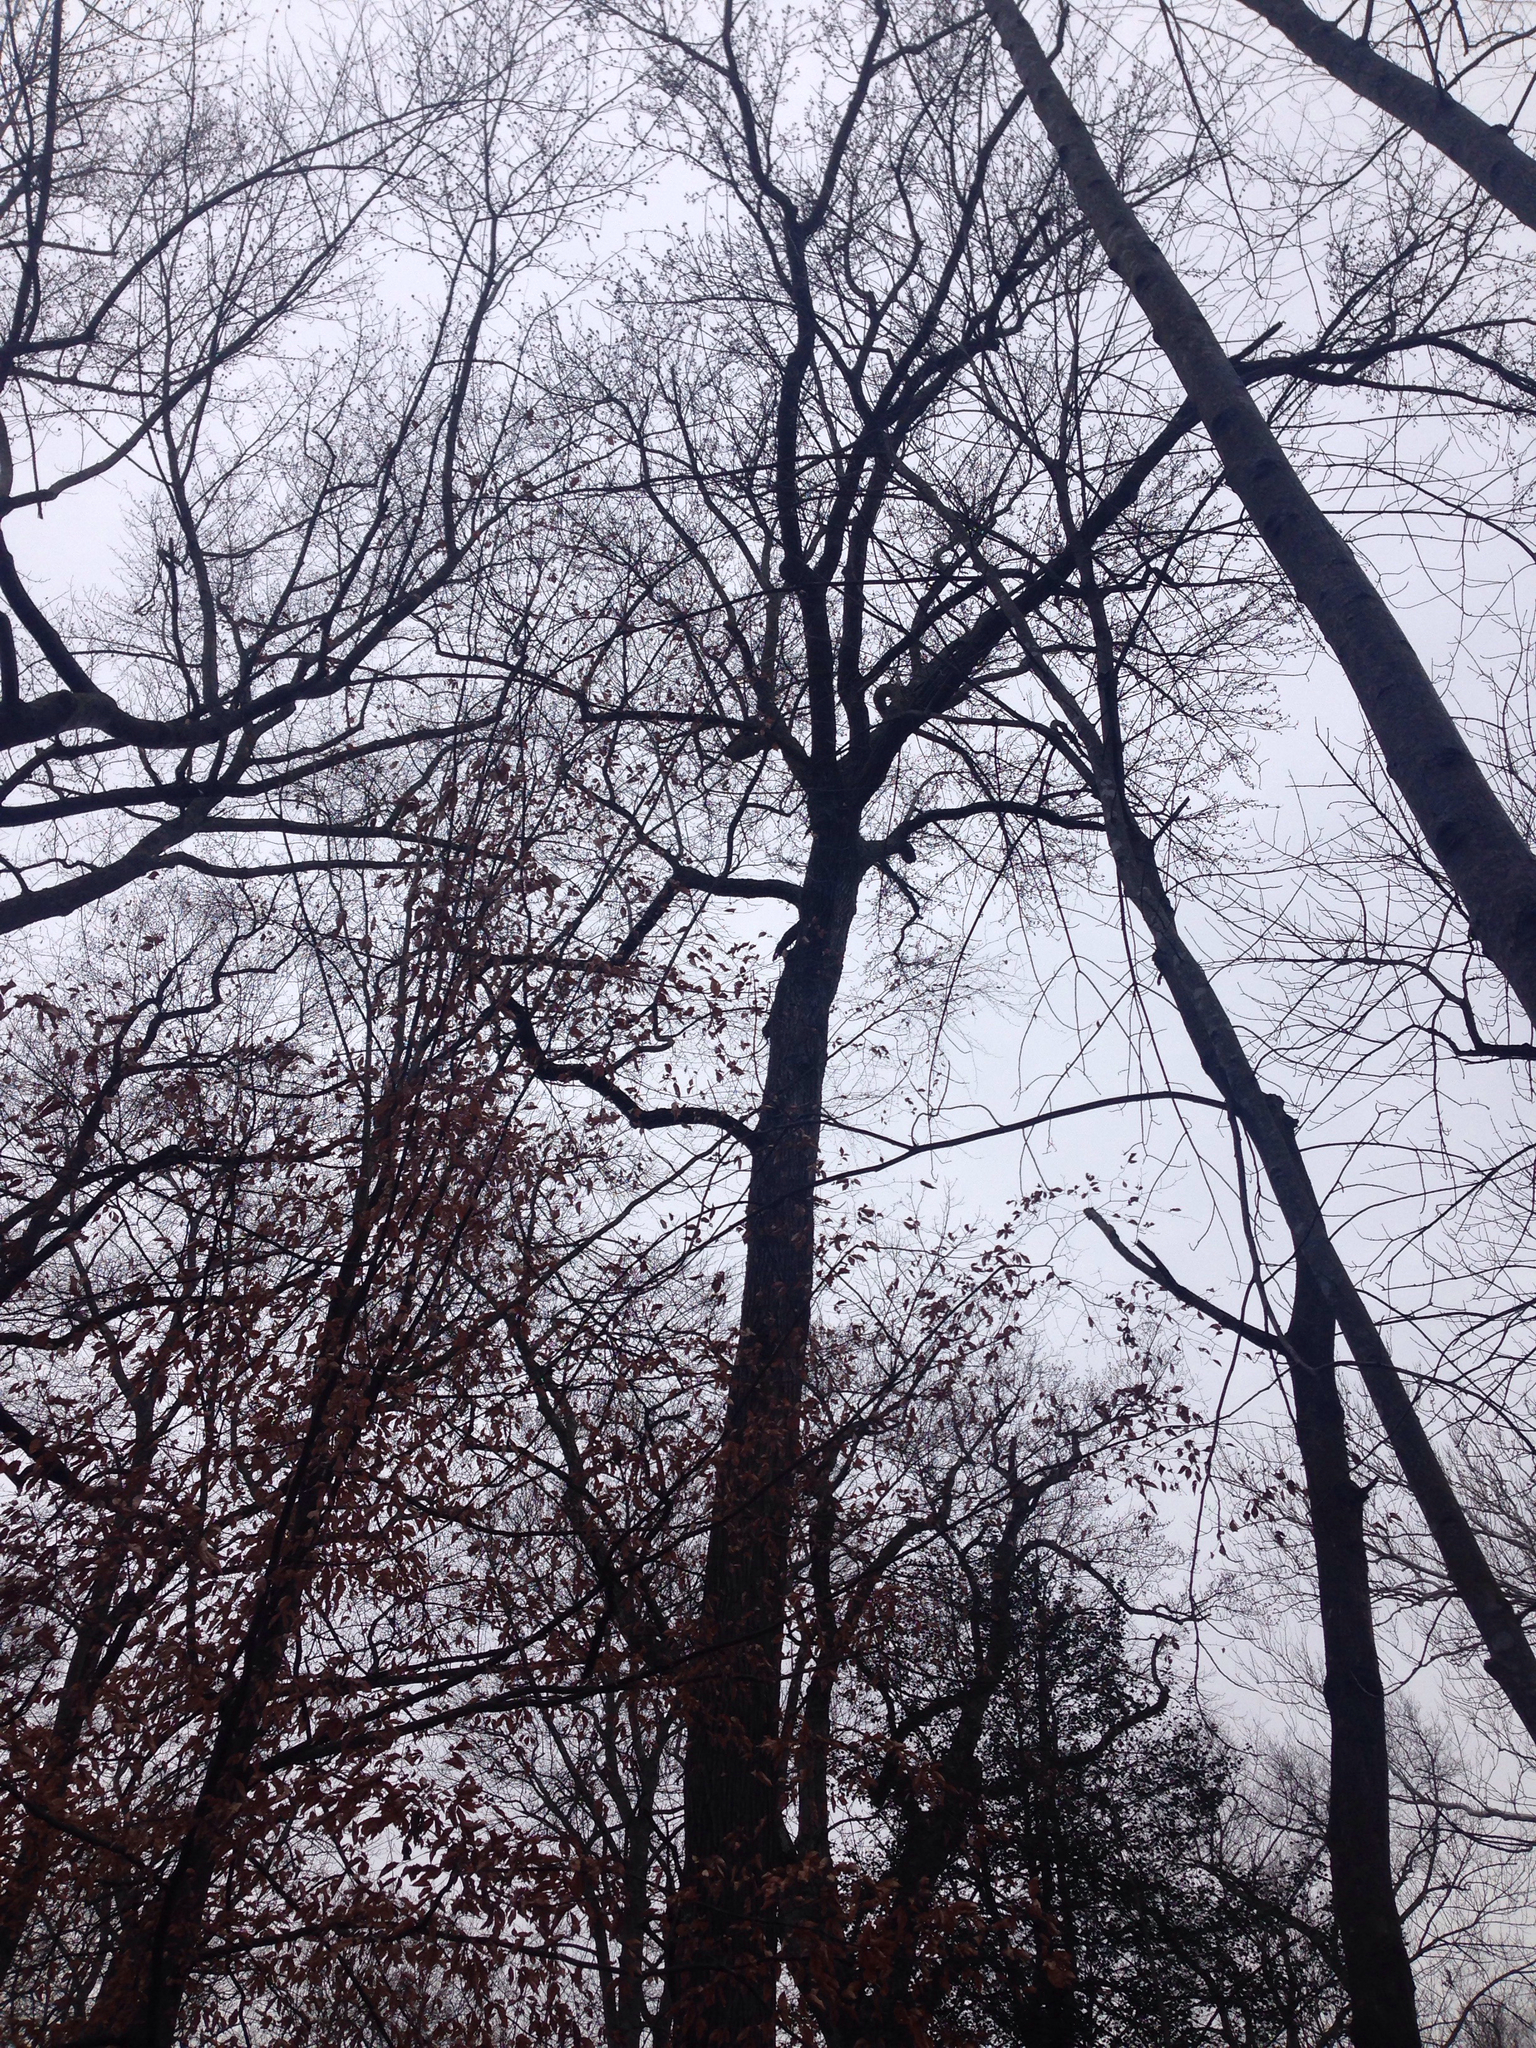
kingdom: Plantae
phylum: Tracheophyta
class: Magnoliopsida
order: Saxifragales
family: Altingiaceae
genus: Liquidambar
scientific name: Liquidambar styraciflua
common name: Sweet gum
